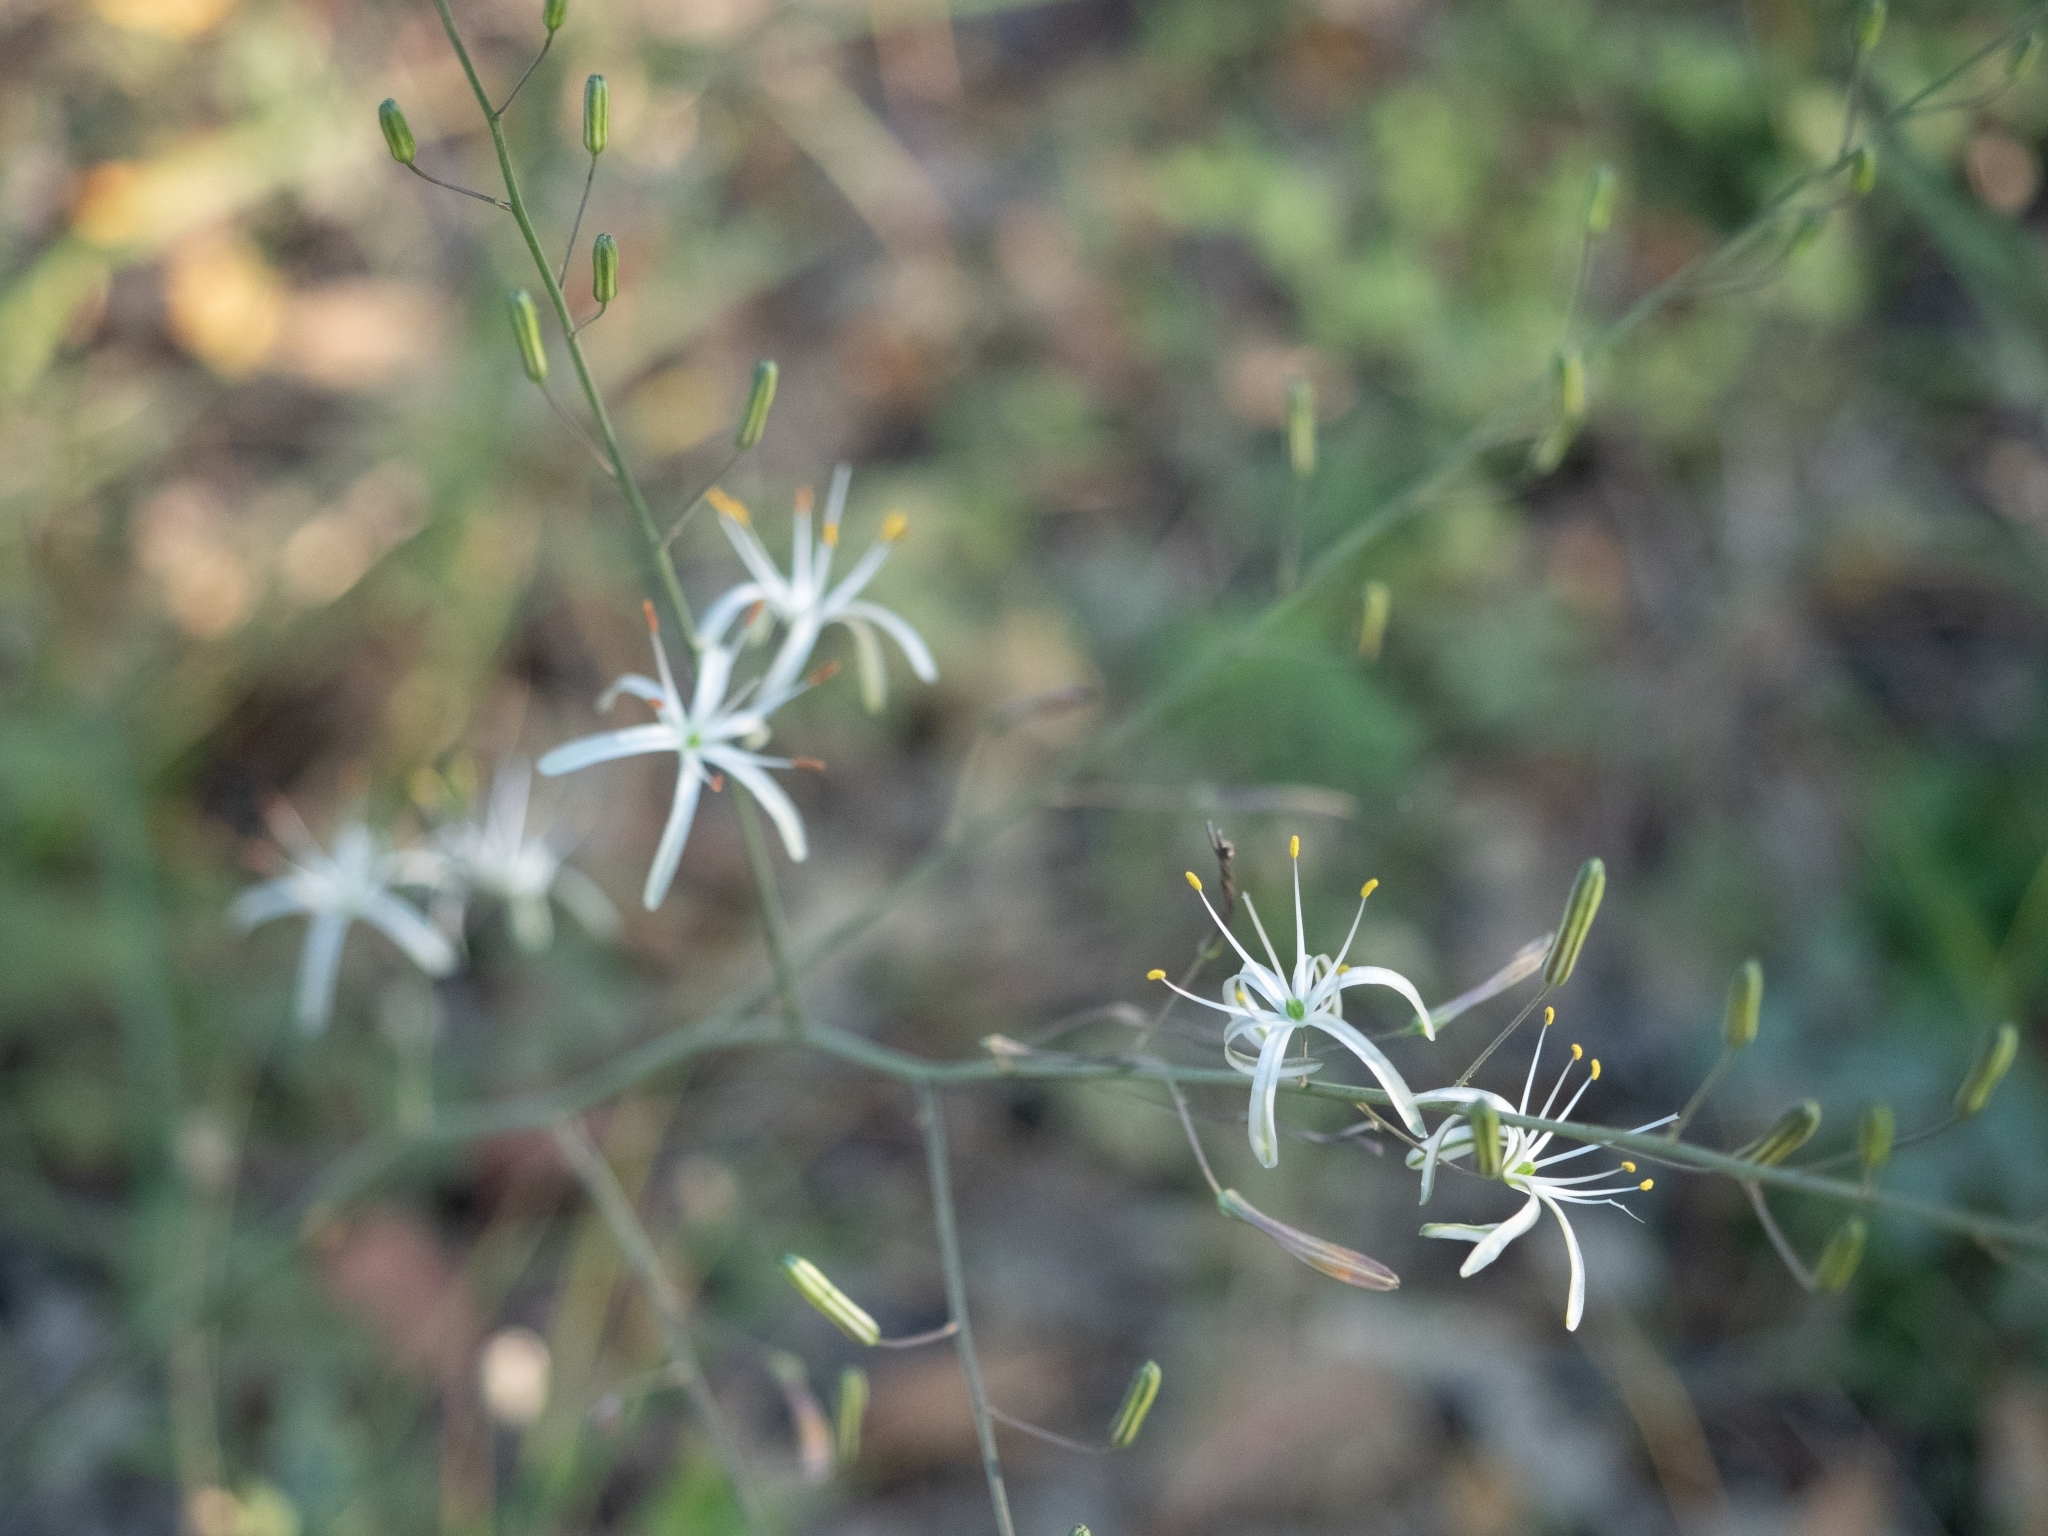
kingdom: Plantae
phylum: Tracheophyta
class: Liliopsida
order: Asparagales
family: Asparagaceae
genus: Chlorogalum
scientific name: Chlorogalum pomeridianum
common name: Amole
